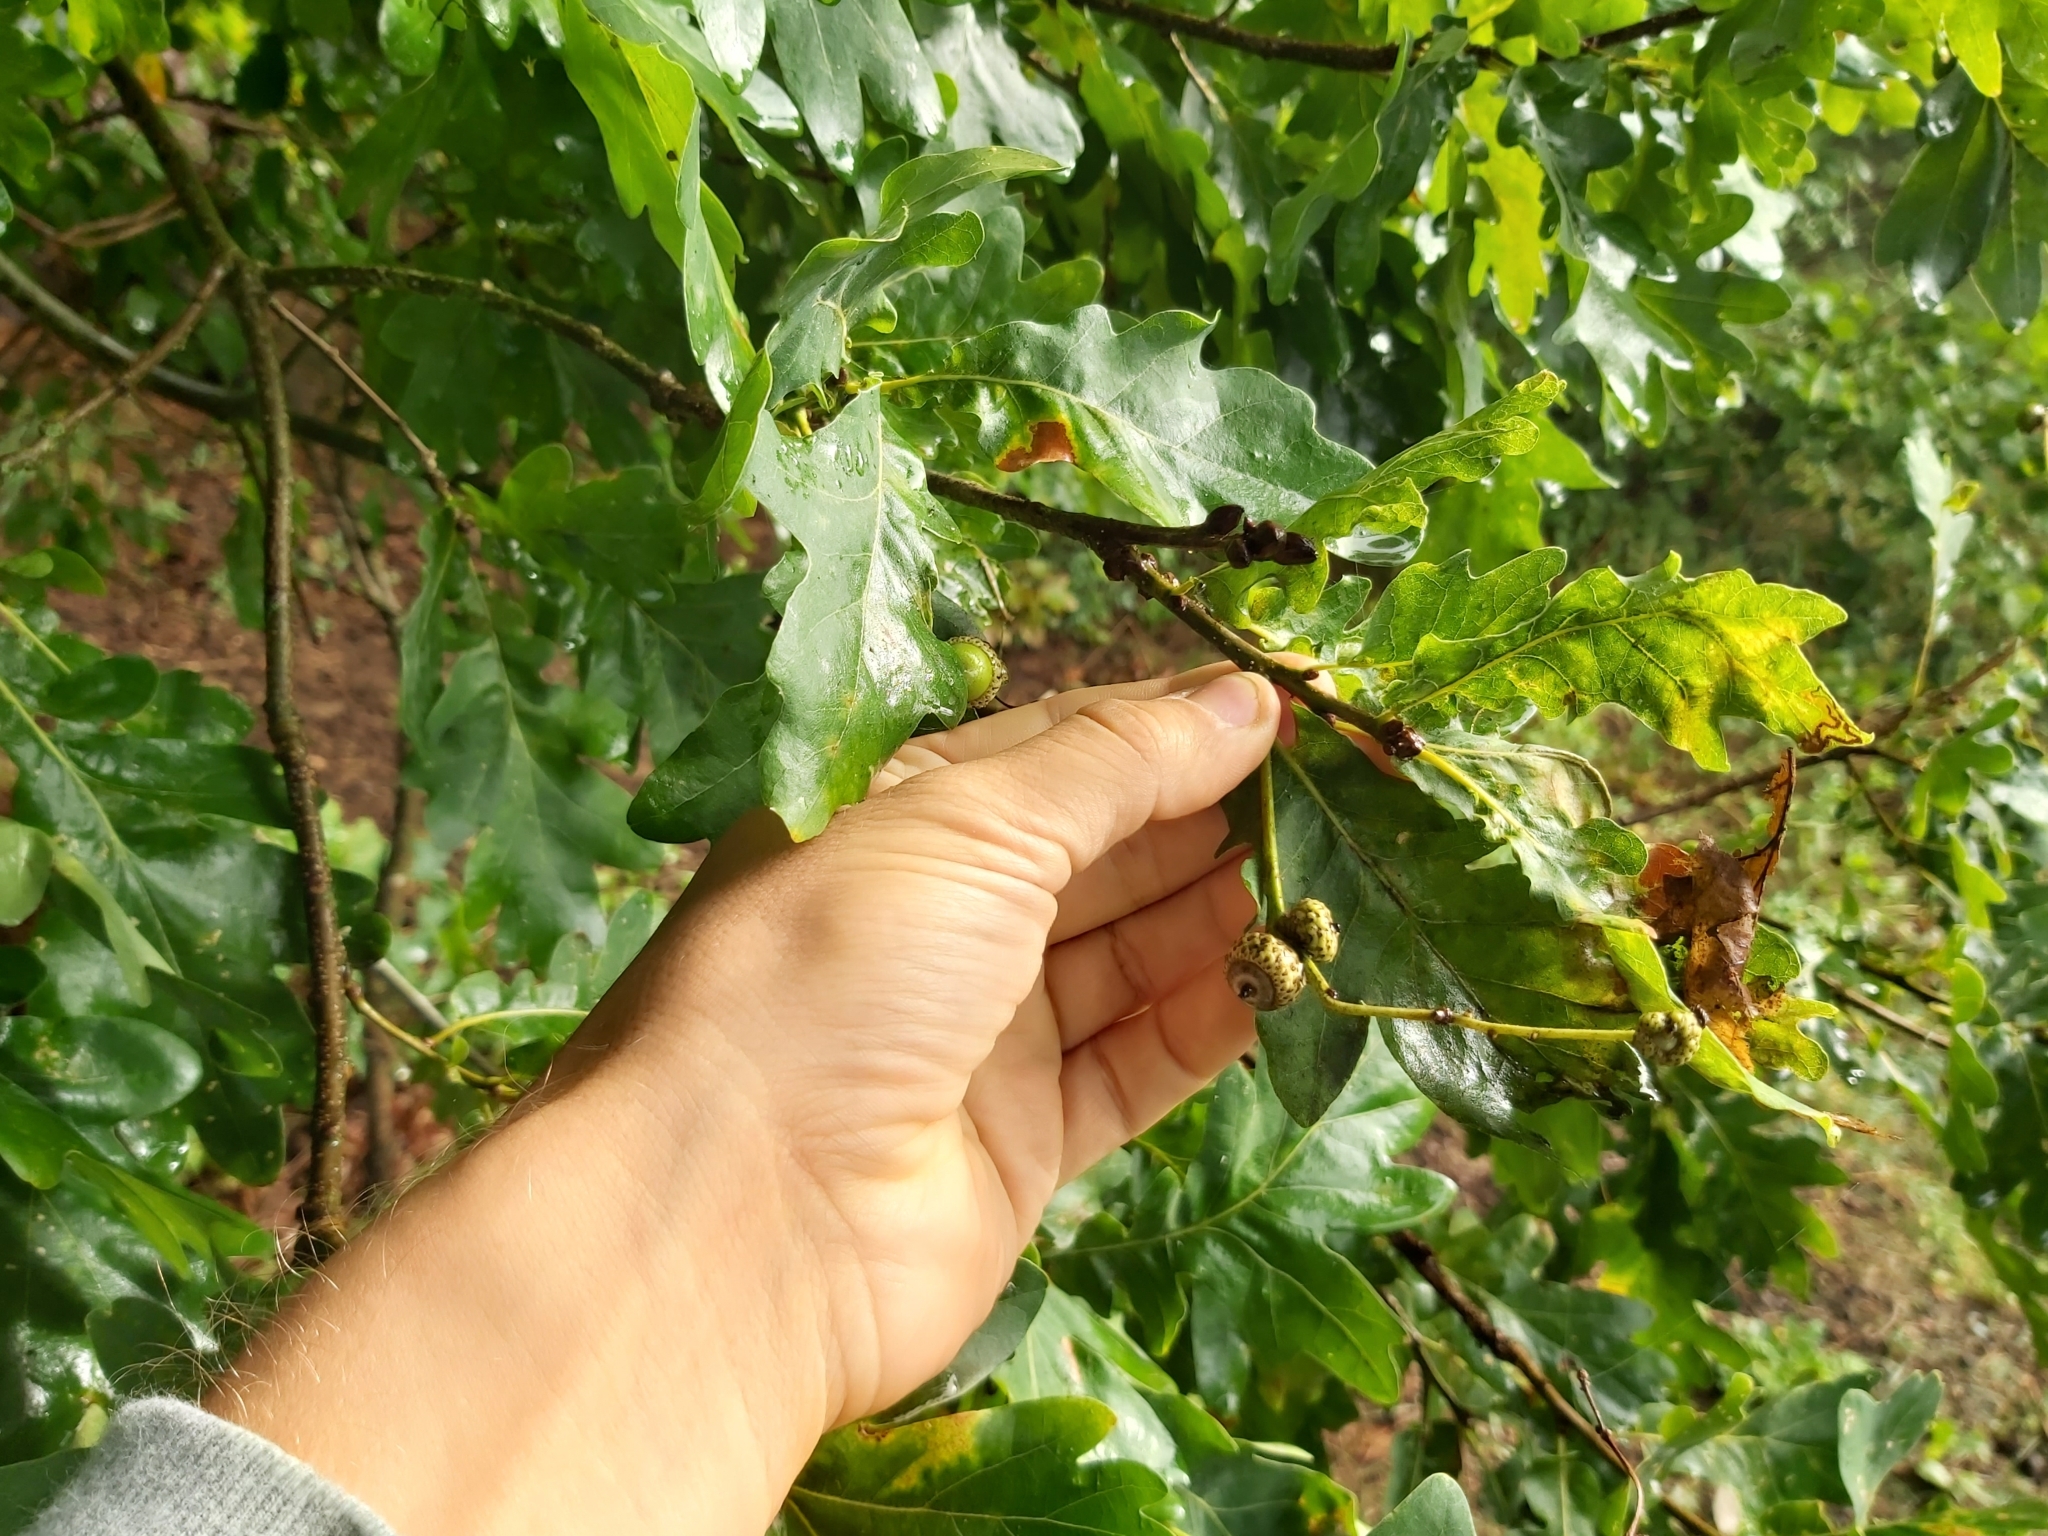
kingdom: Plantae
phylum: Tracheophyta
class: Magnoliopsida
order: Fagales
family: Fagaceae
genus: Quercus
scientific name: Quercus robur
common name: Pedunculate oak
